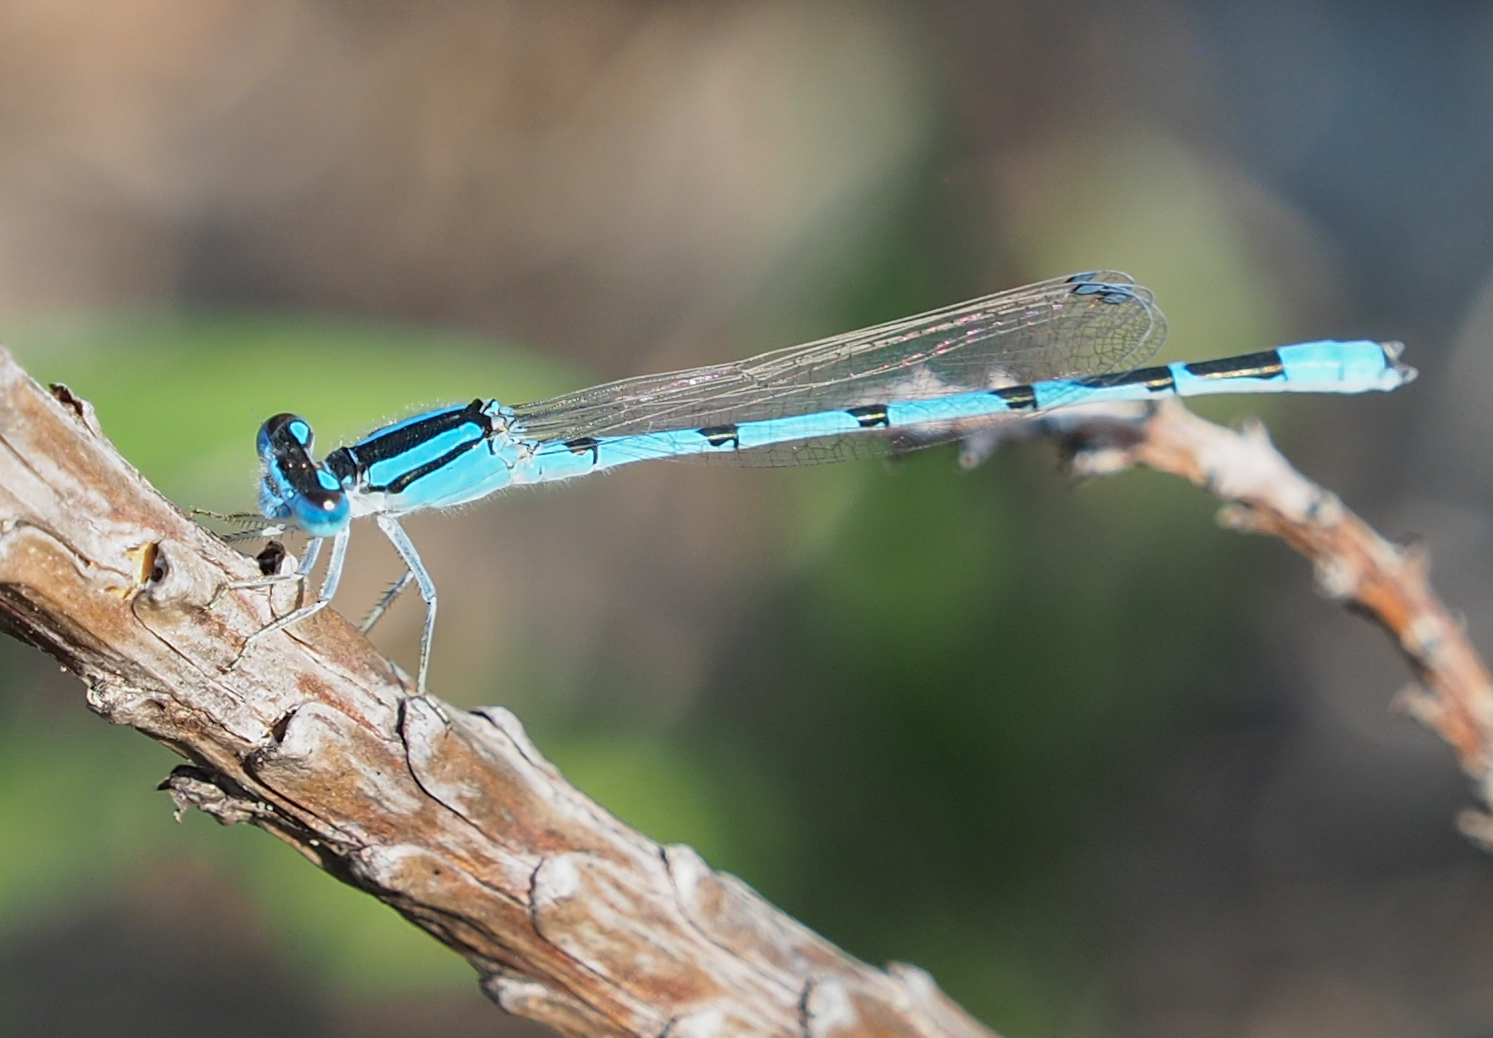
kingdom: Animalia
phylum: Arthropoda
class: Insecta
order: Odonata
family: Coenagrionidae
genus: Enallagma
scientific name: Enallagma civile
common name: Damselfly
